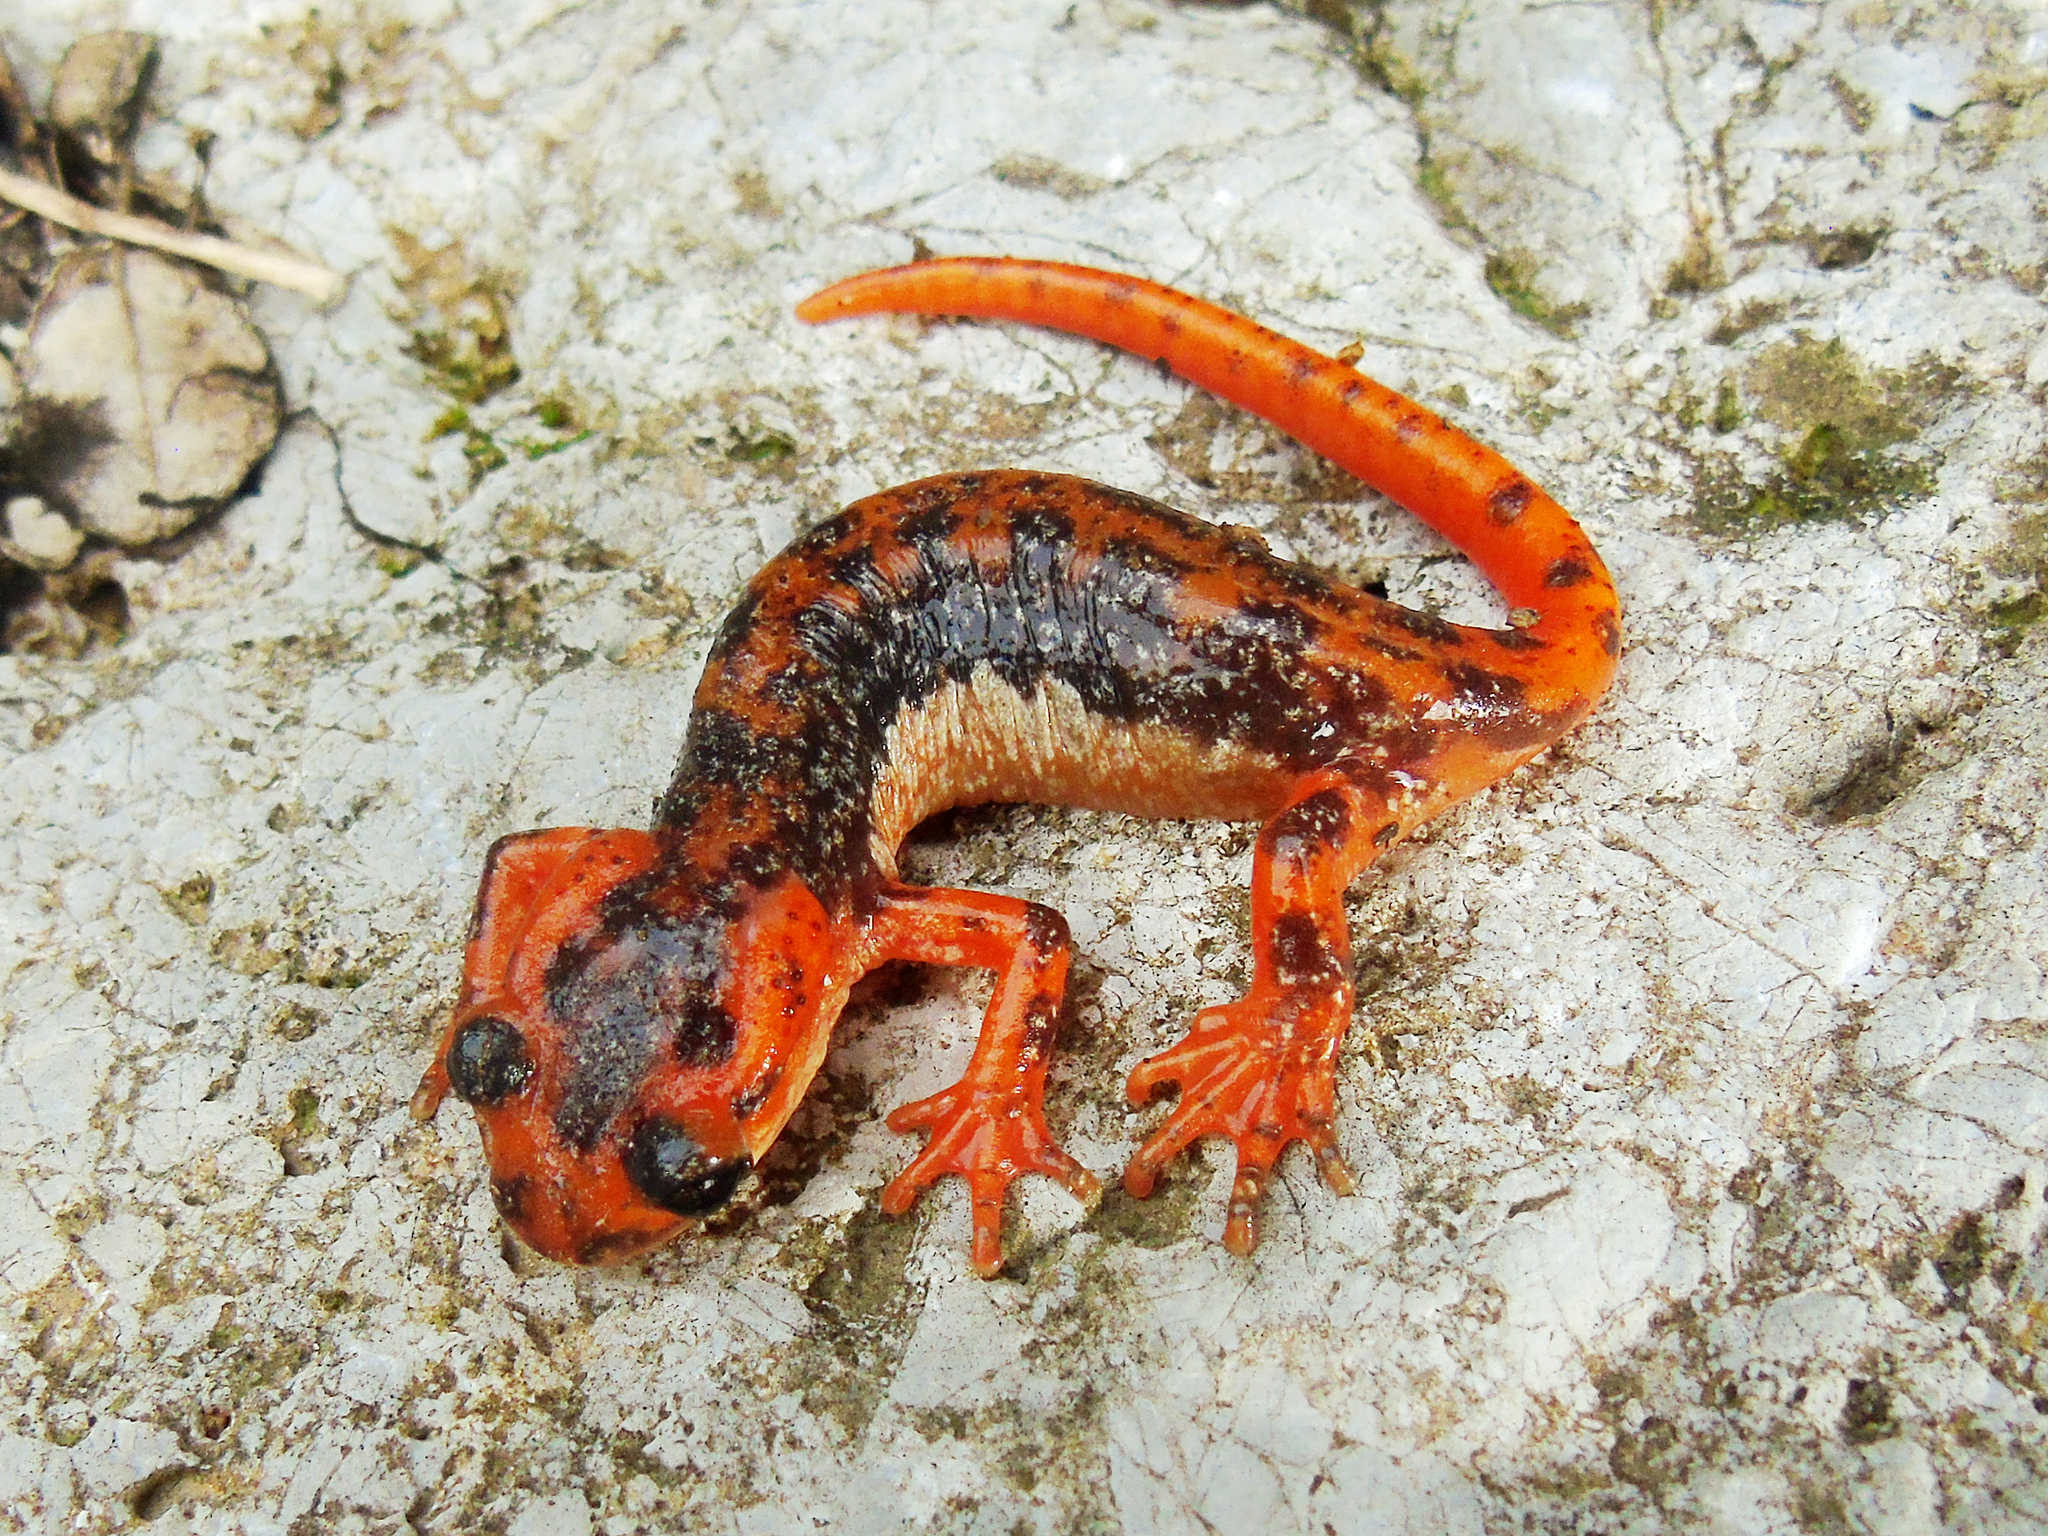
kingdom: Animalia
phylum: Chordata
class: Amphibia
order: Caudata
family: Salamandridae
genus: Lyciasalamandra
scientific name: Lyciasalamandra fazilae
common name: Fazila's salamander
